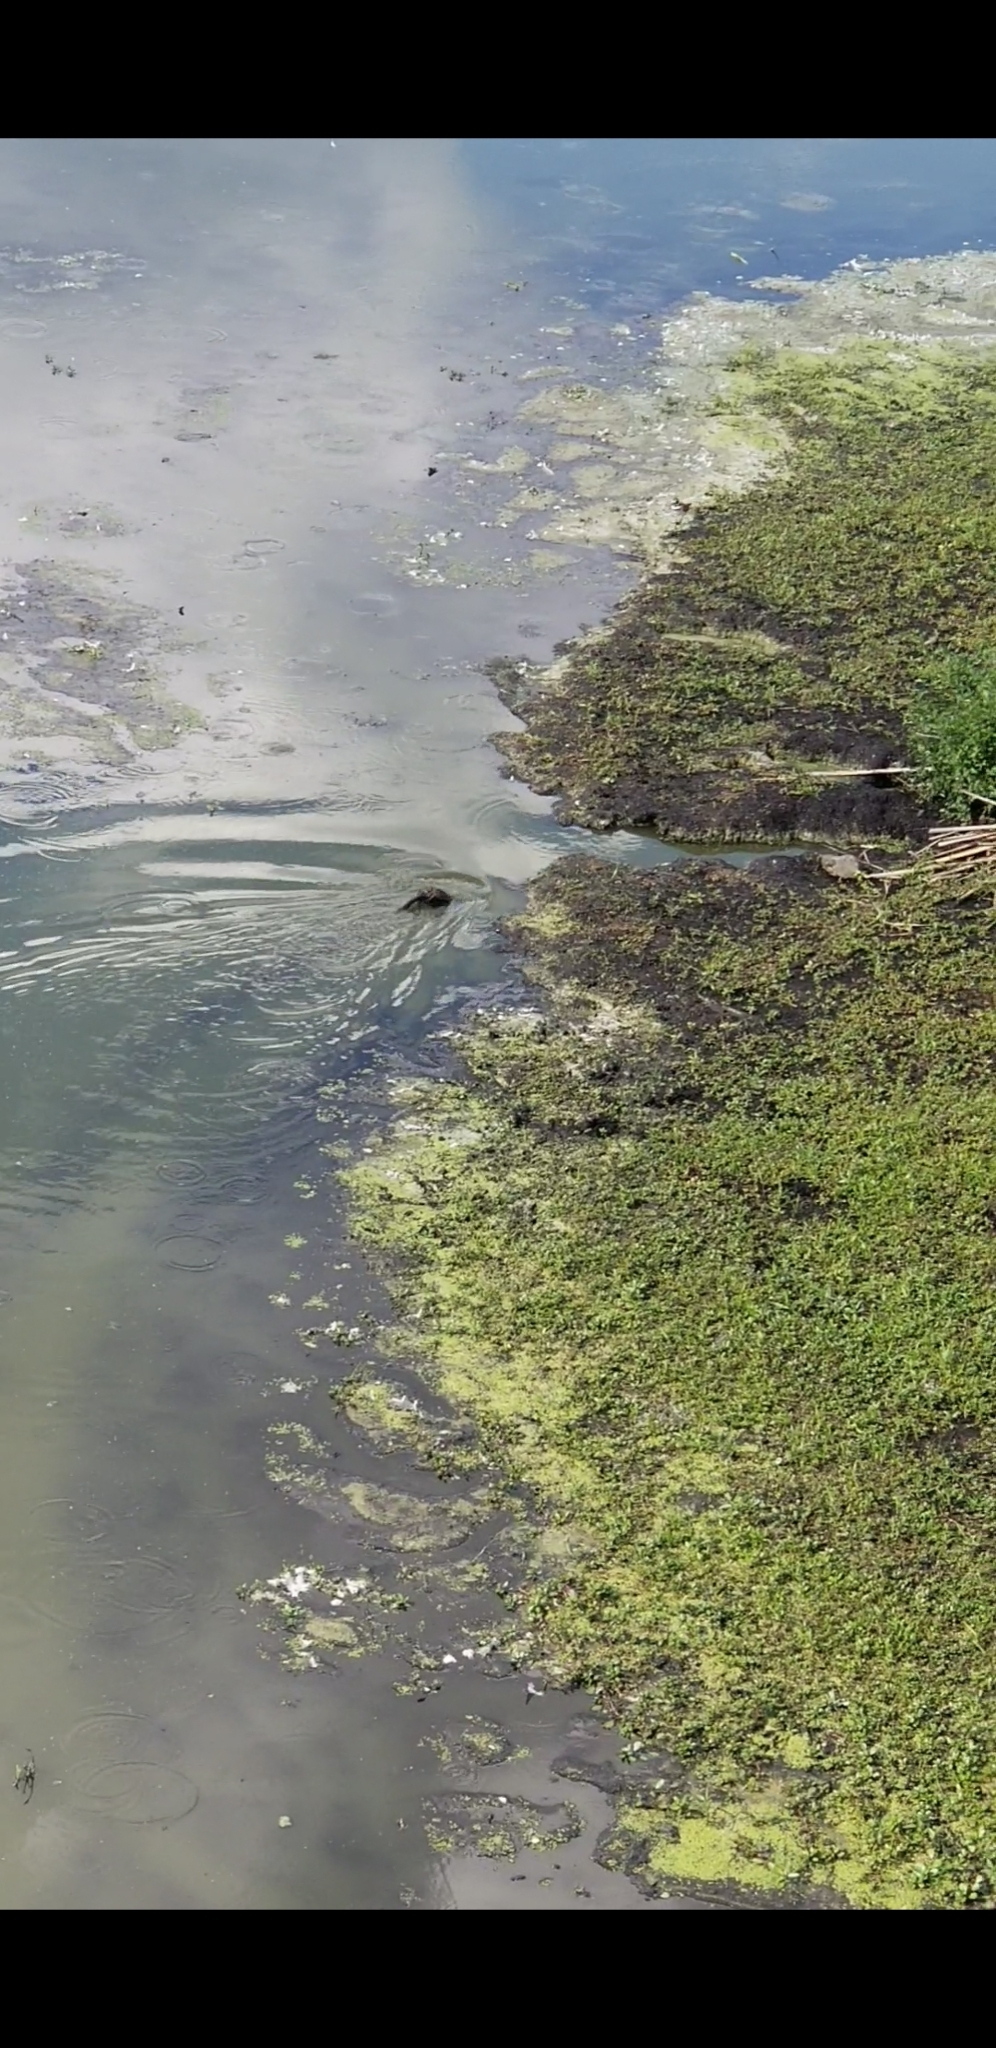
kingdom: Animalia
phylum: Chordata
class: Mammalia
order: Rodentia
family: Cricetidae
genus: Ondatra
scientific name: Ondatra zibethicus
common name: Muskrat
